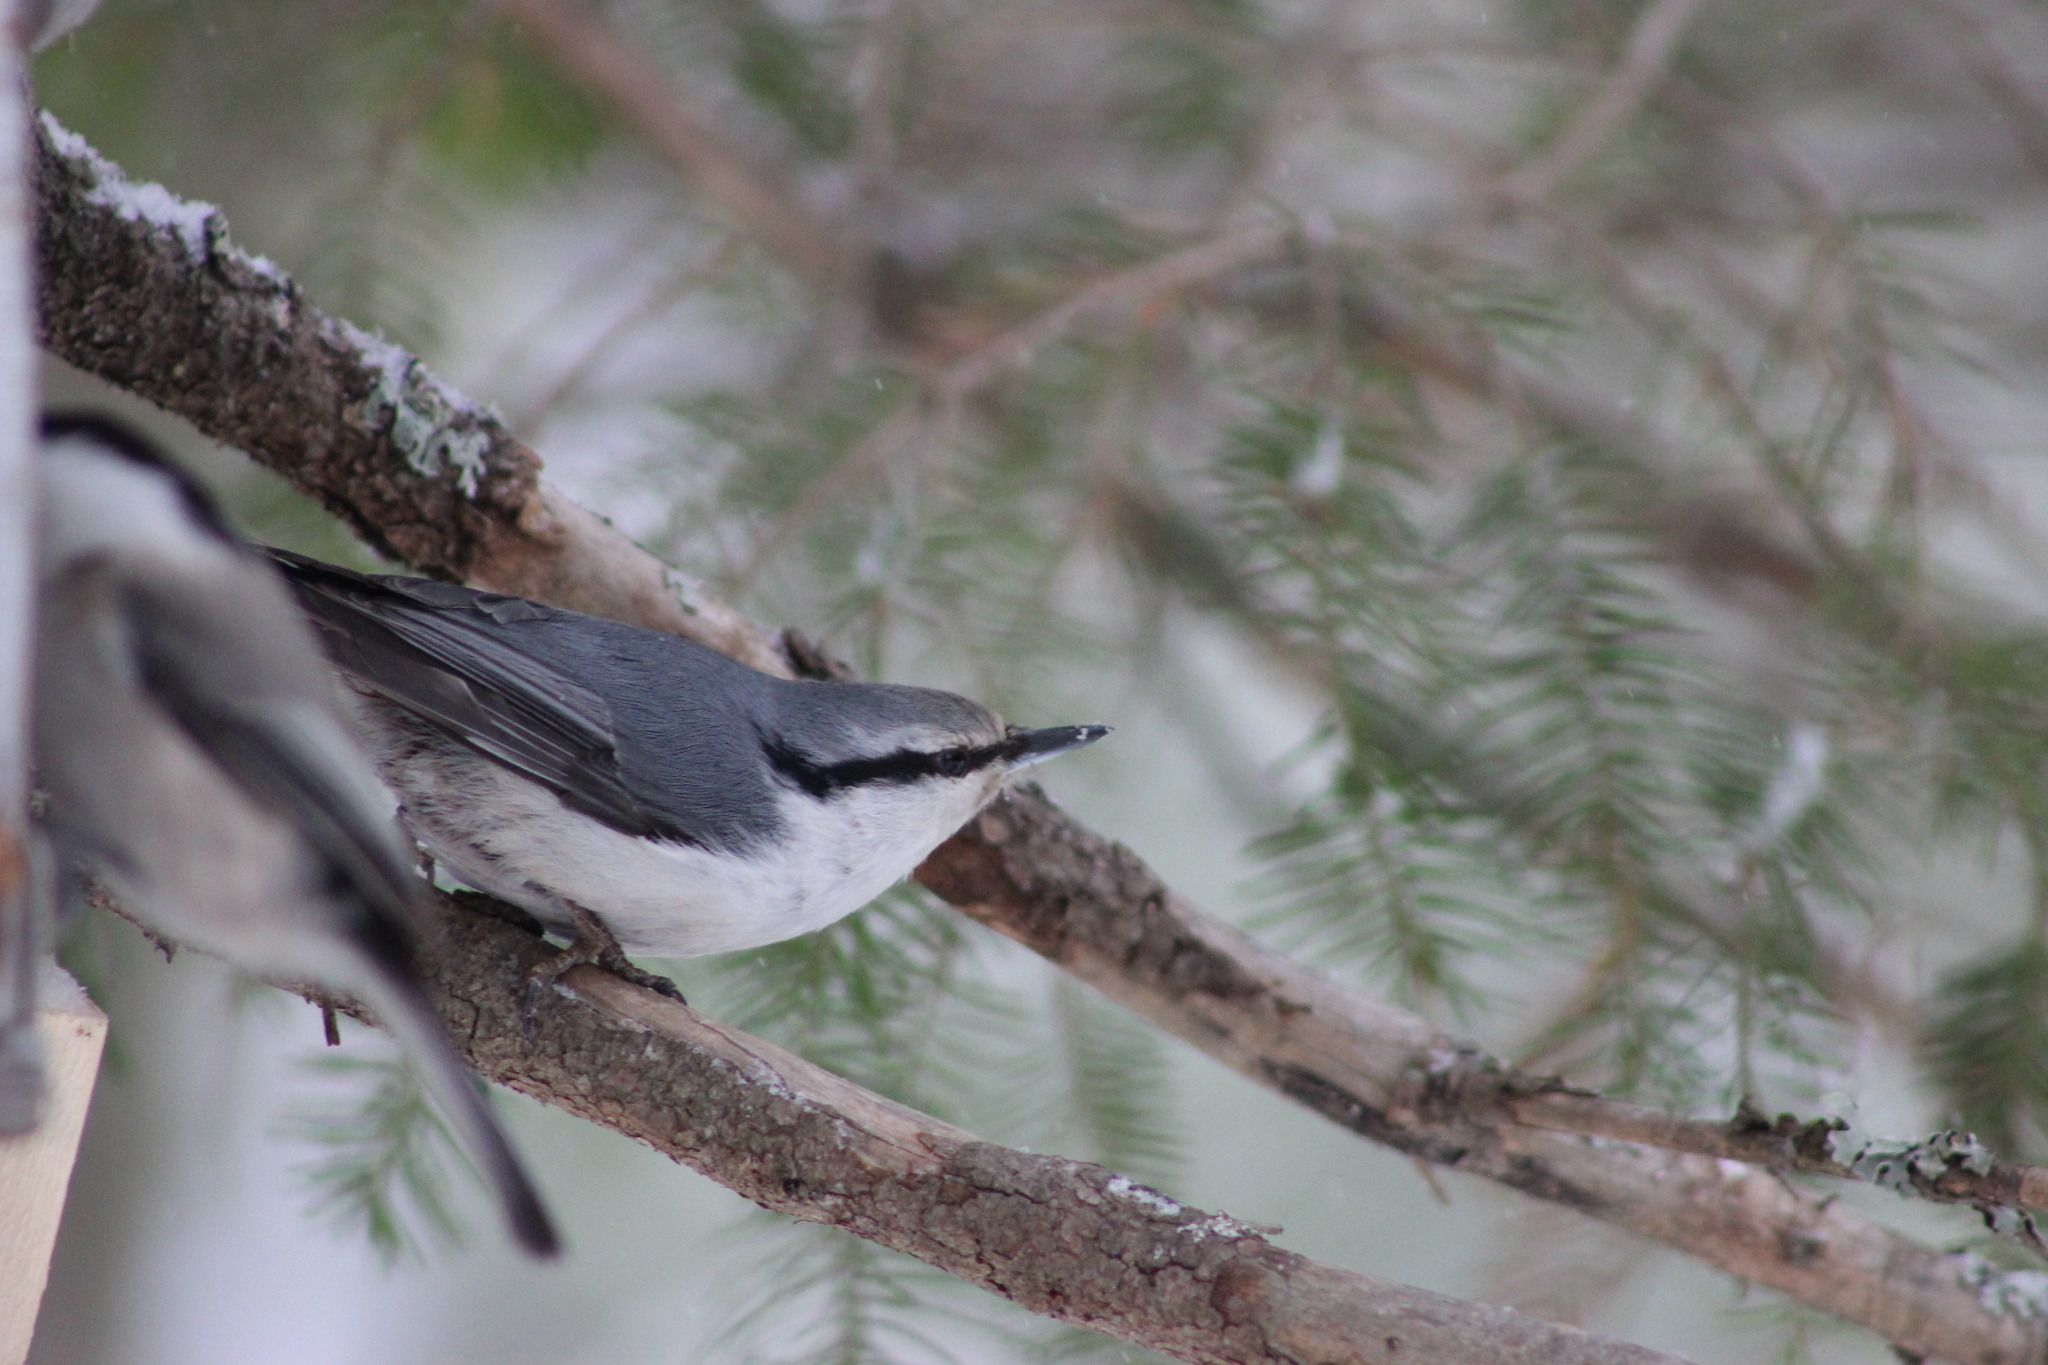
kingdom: Animalia
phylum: Chordata
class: Aves
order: Passeriformes
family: Sittidae
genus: Sitta
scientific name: Sitta europaea
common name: Eurasian nuthatch
